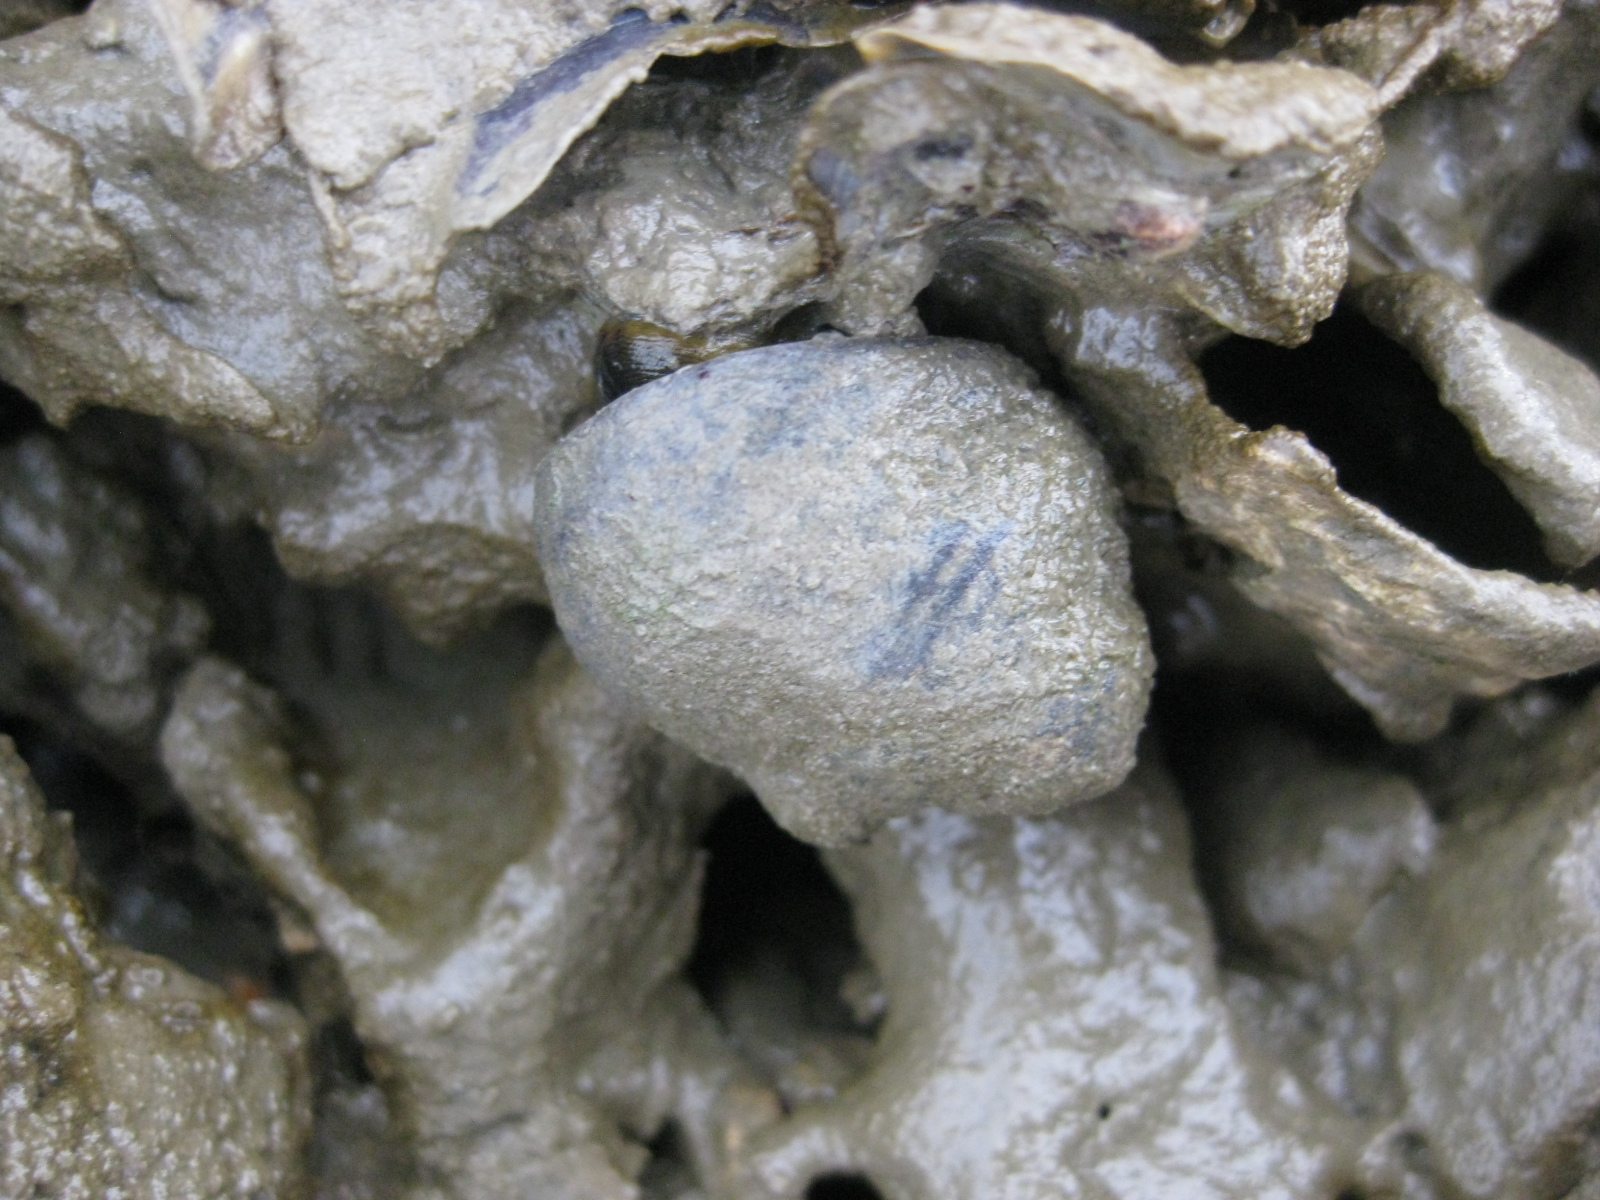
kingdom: Animalia
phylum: Mollusca
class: Gastropoda
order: Trochida
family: Trochidae
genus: Diloma
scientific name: Diloma subrostratum
